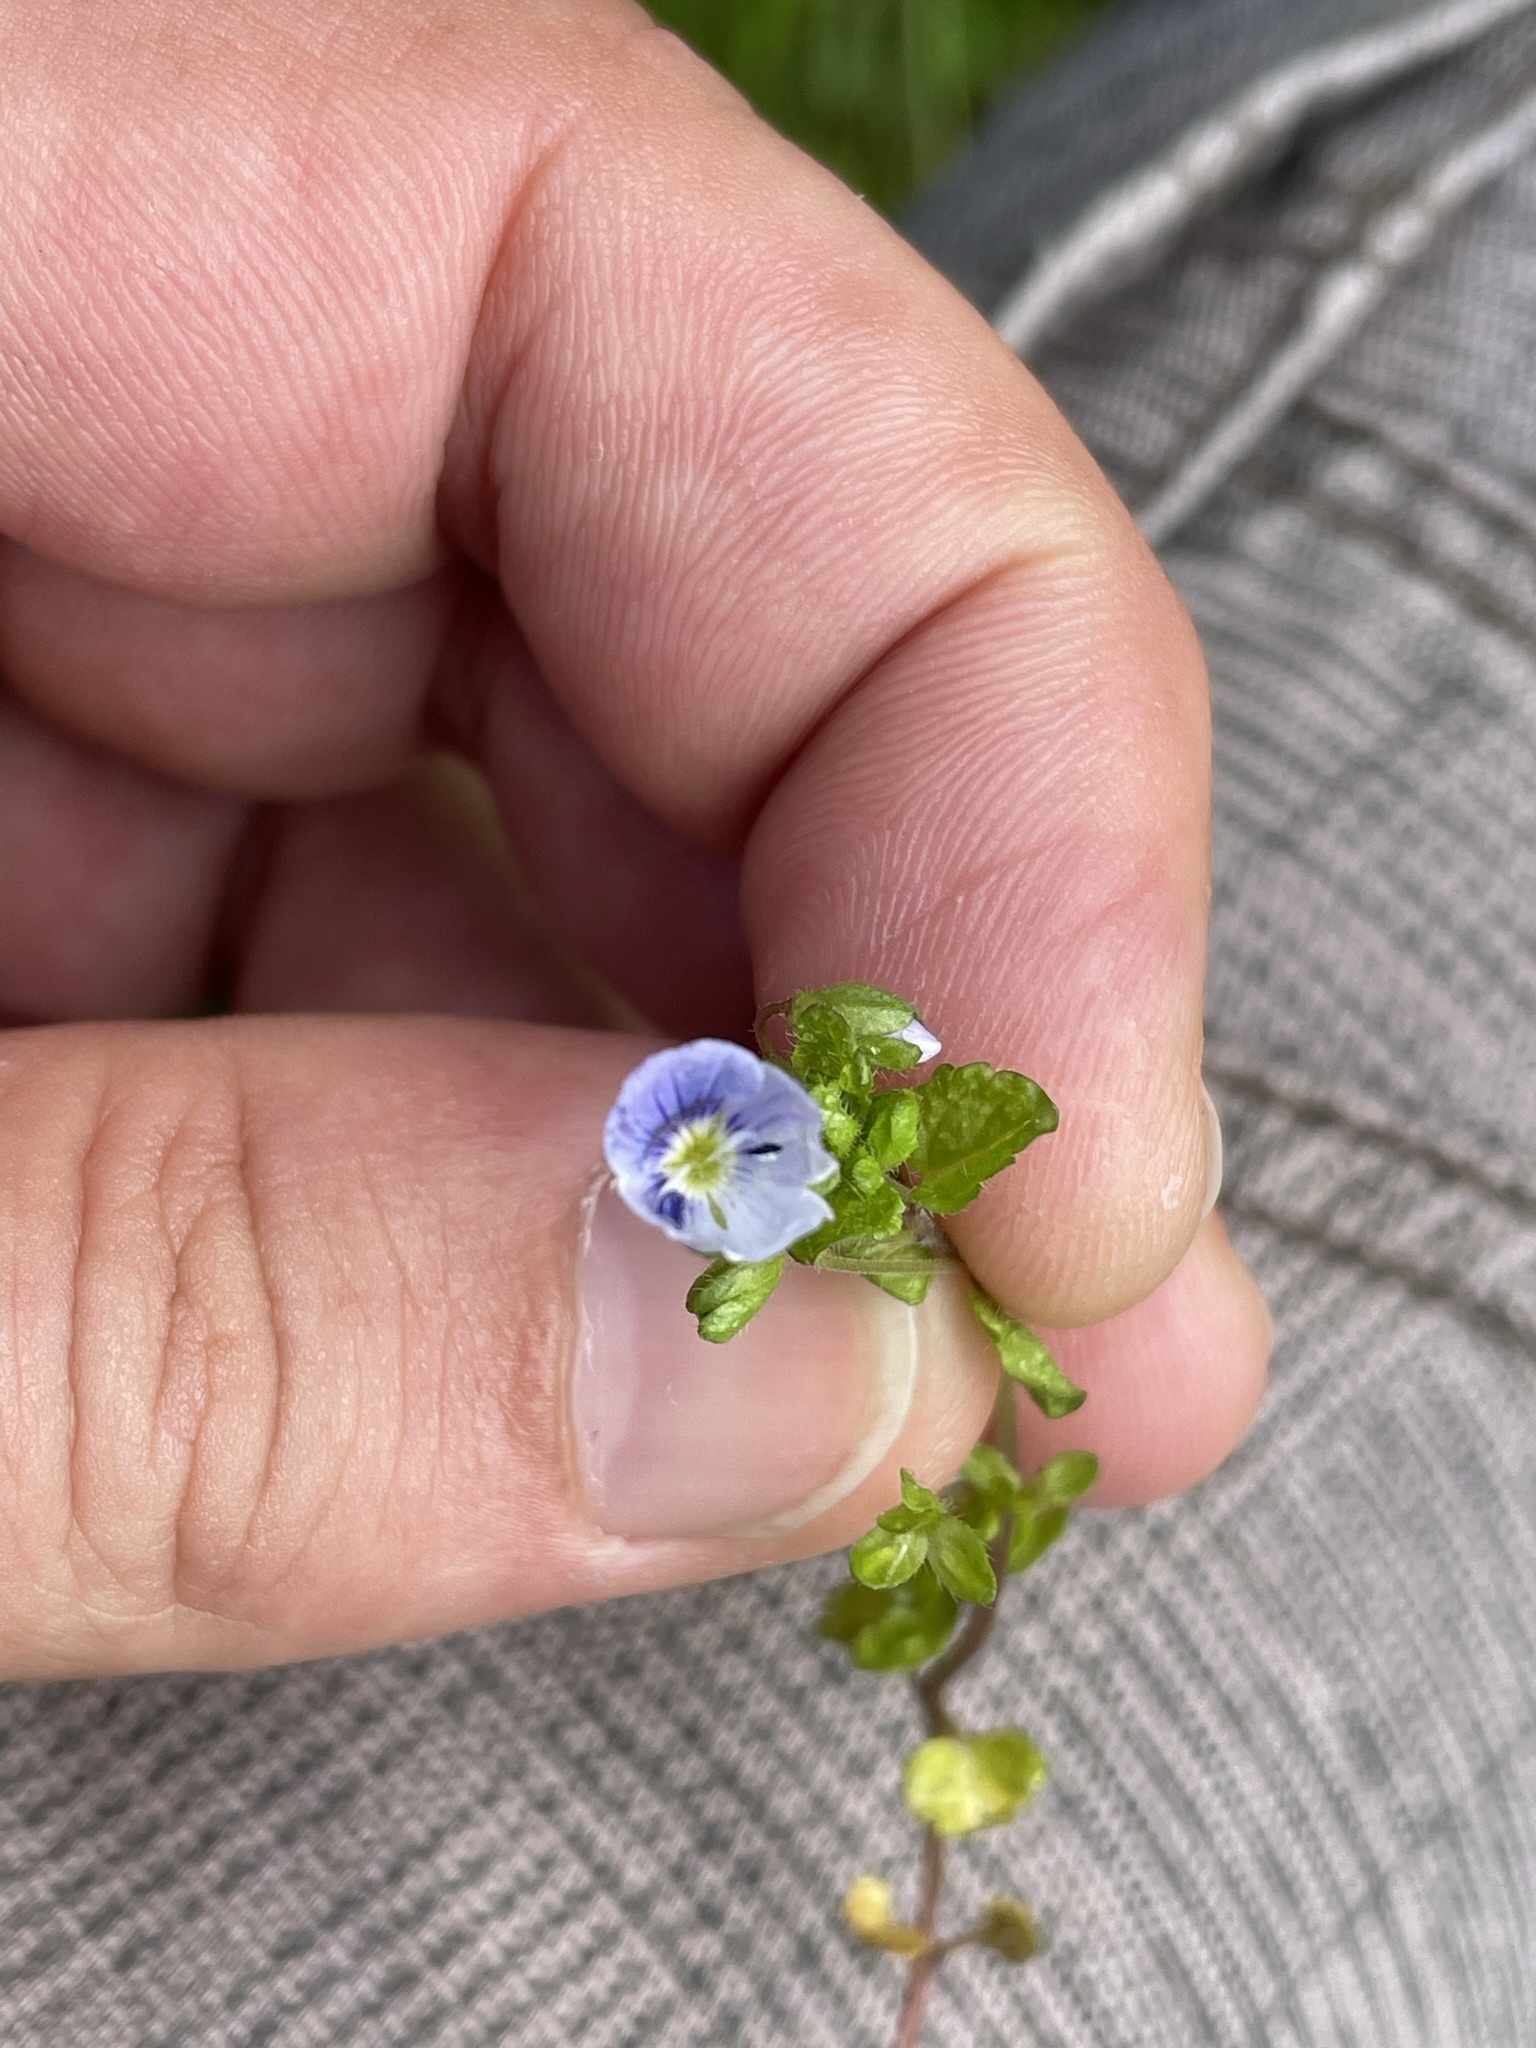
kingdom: Plantae
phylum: Tracheophyta
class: Magnoliopsida
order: Lamiales
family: Plantaginaceae
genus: Veronica
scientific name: Veronica filiformis
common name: Slender speedwell
